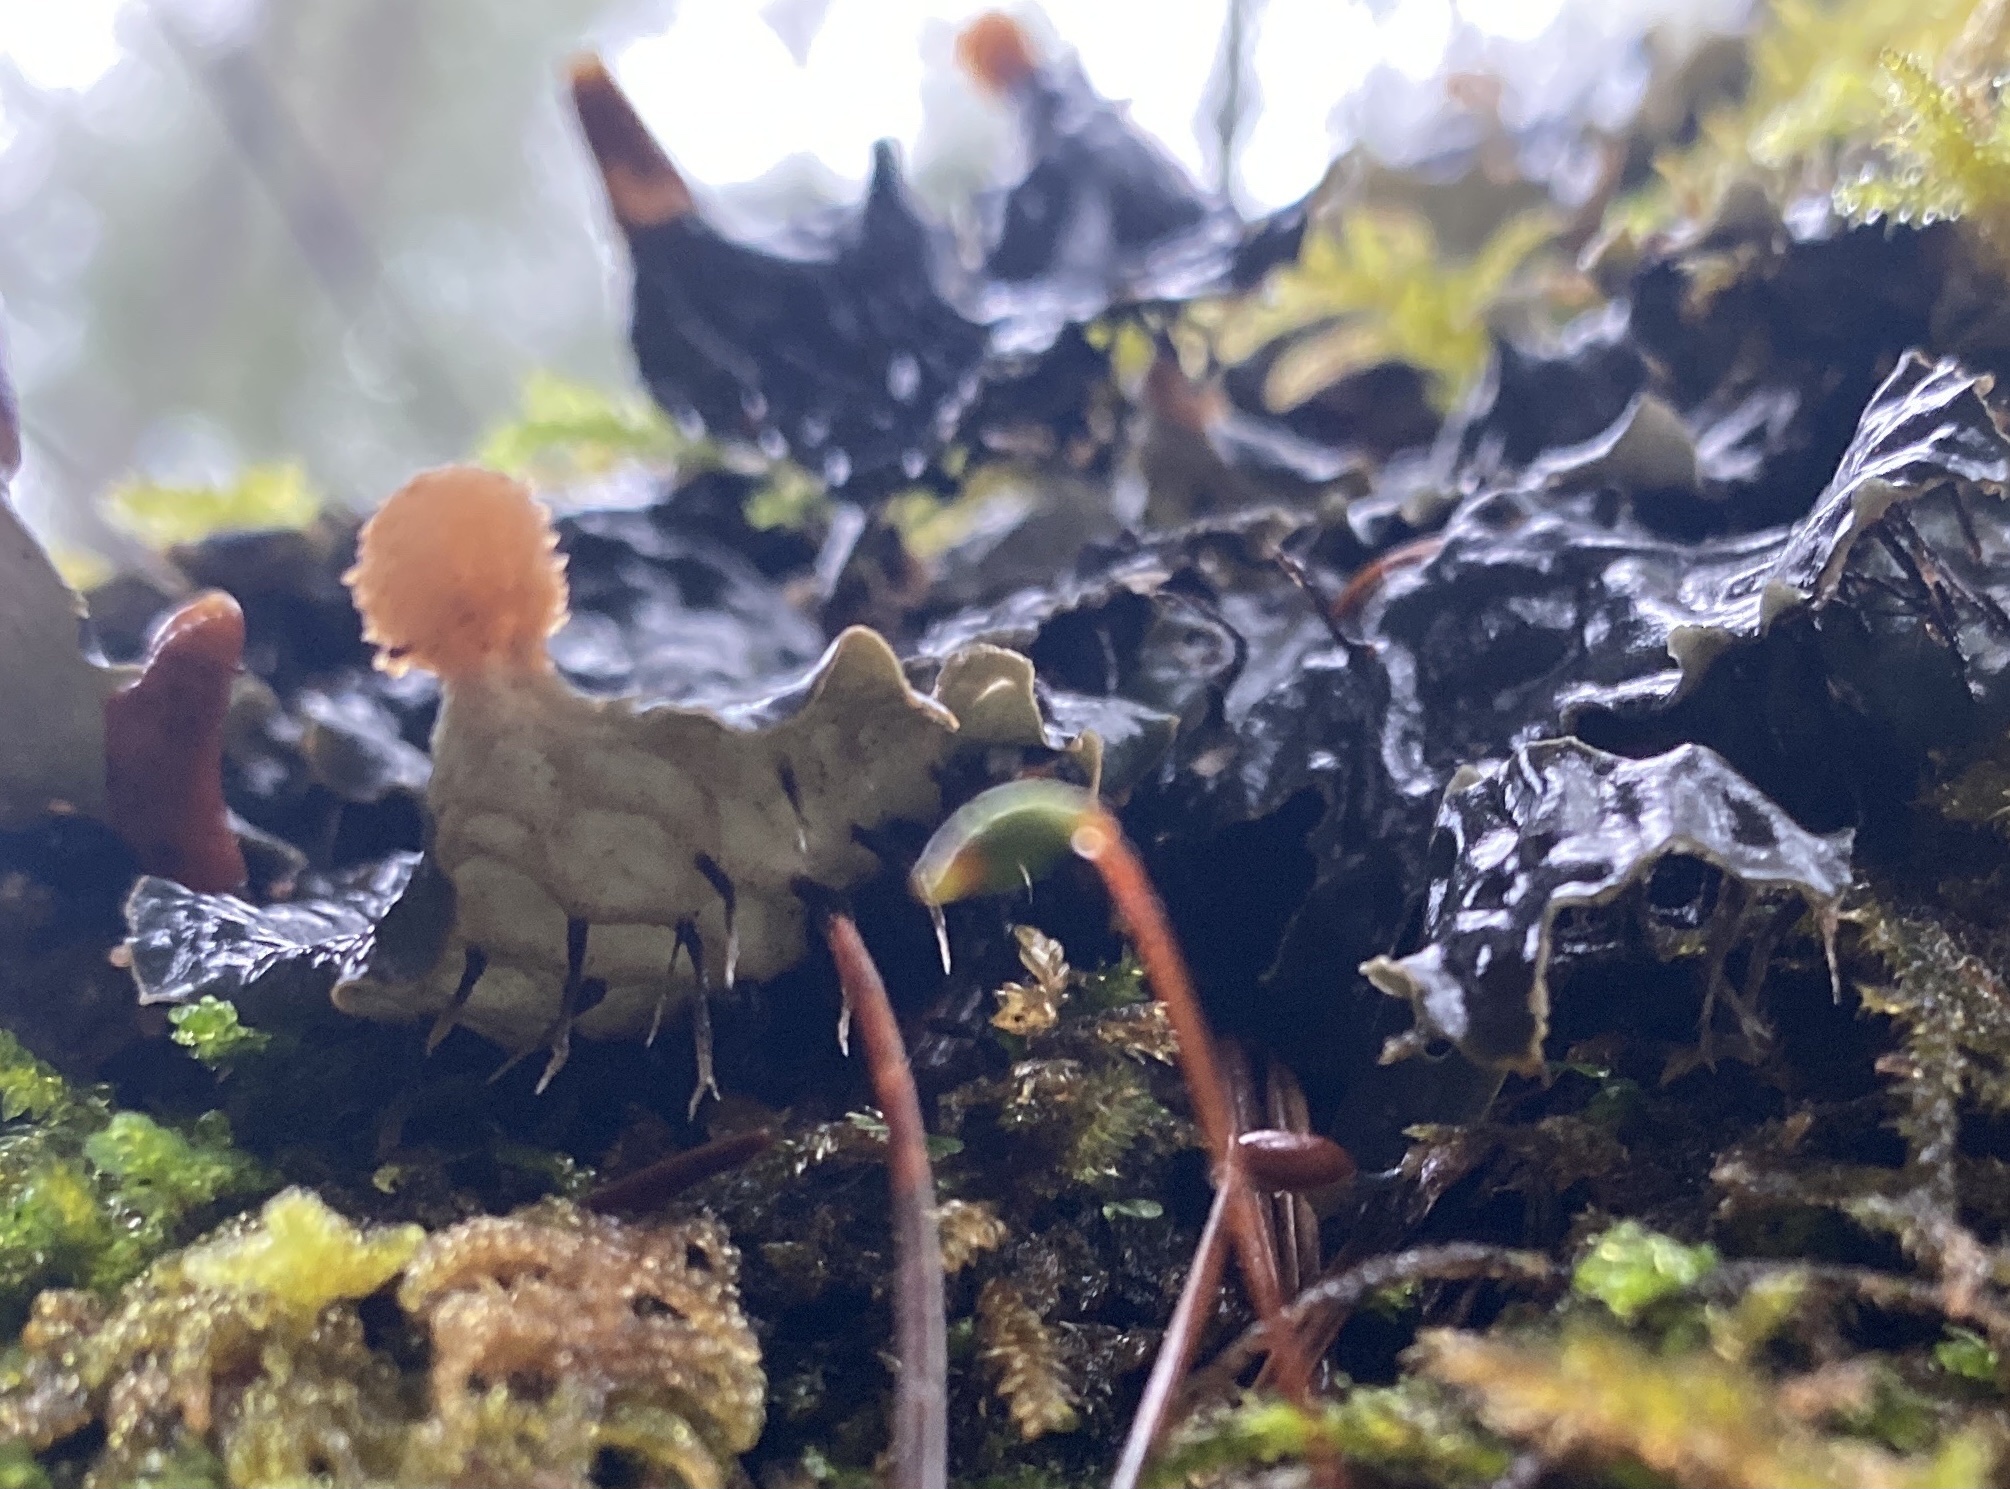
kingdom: Fungi
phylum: Ascomycota
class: Lecanoromycetes
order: Peltigerales
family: Peltigeraceae
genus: Peltigera
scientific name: Peltigera membranacea
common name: Membranous pelt lichen
